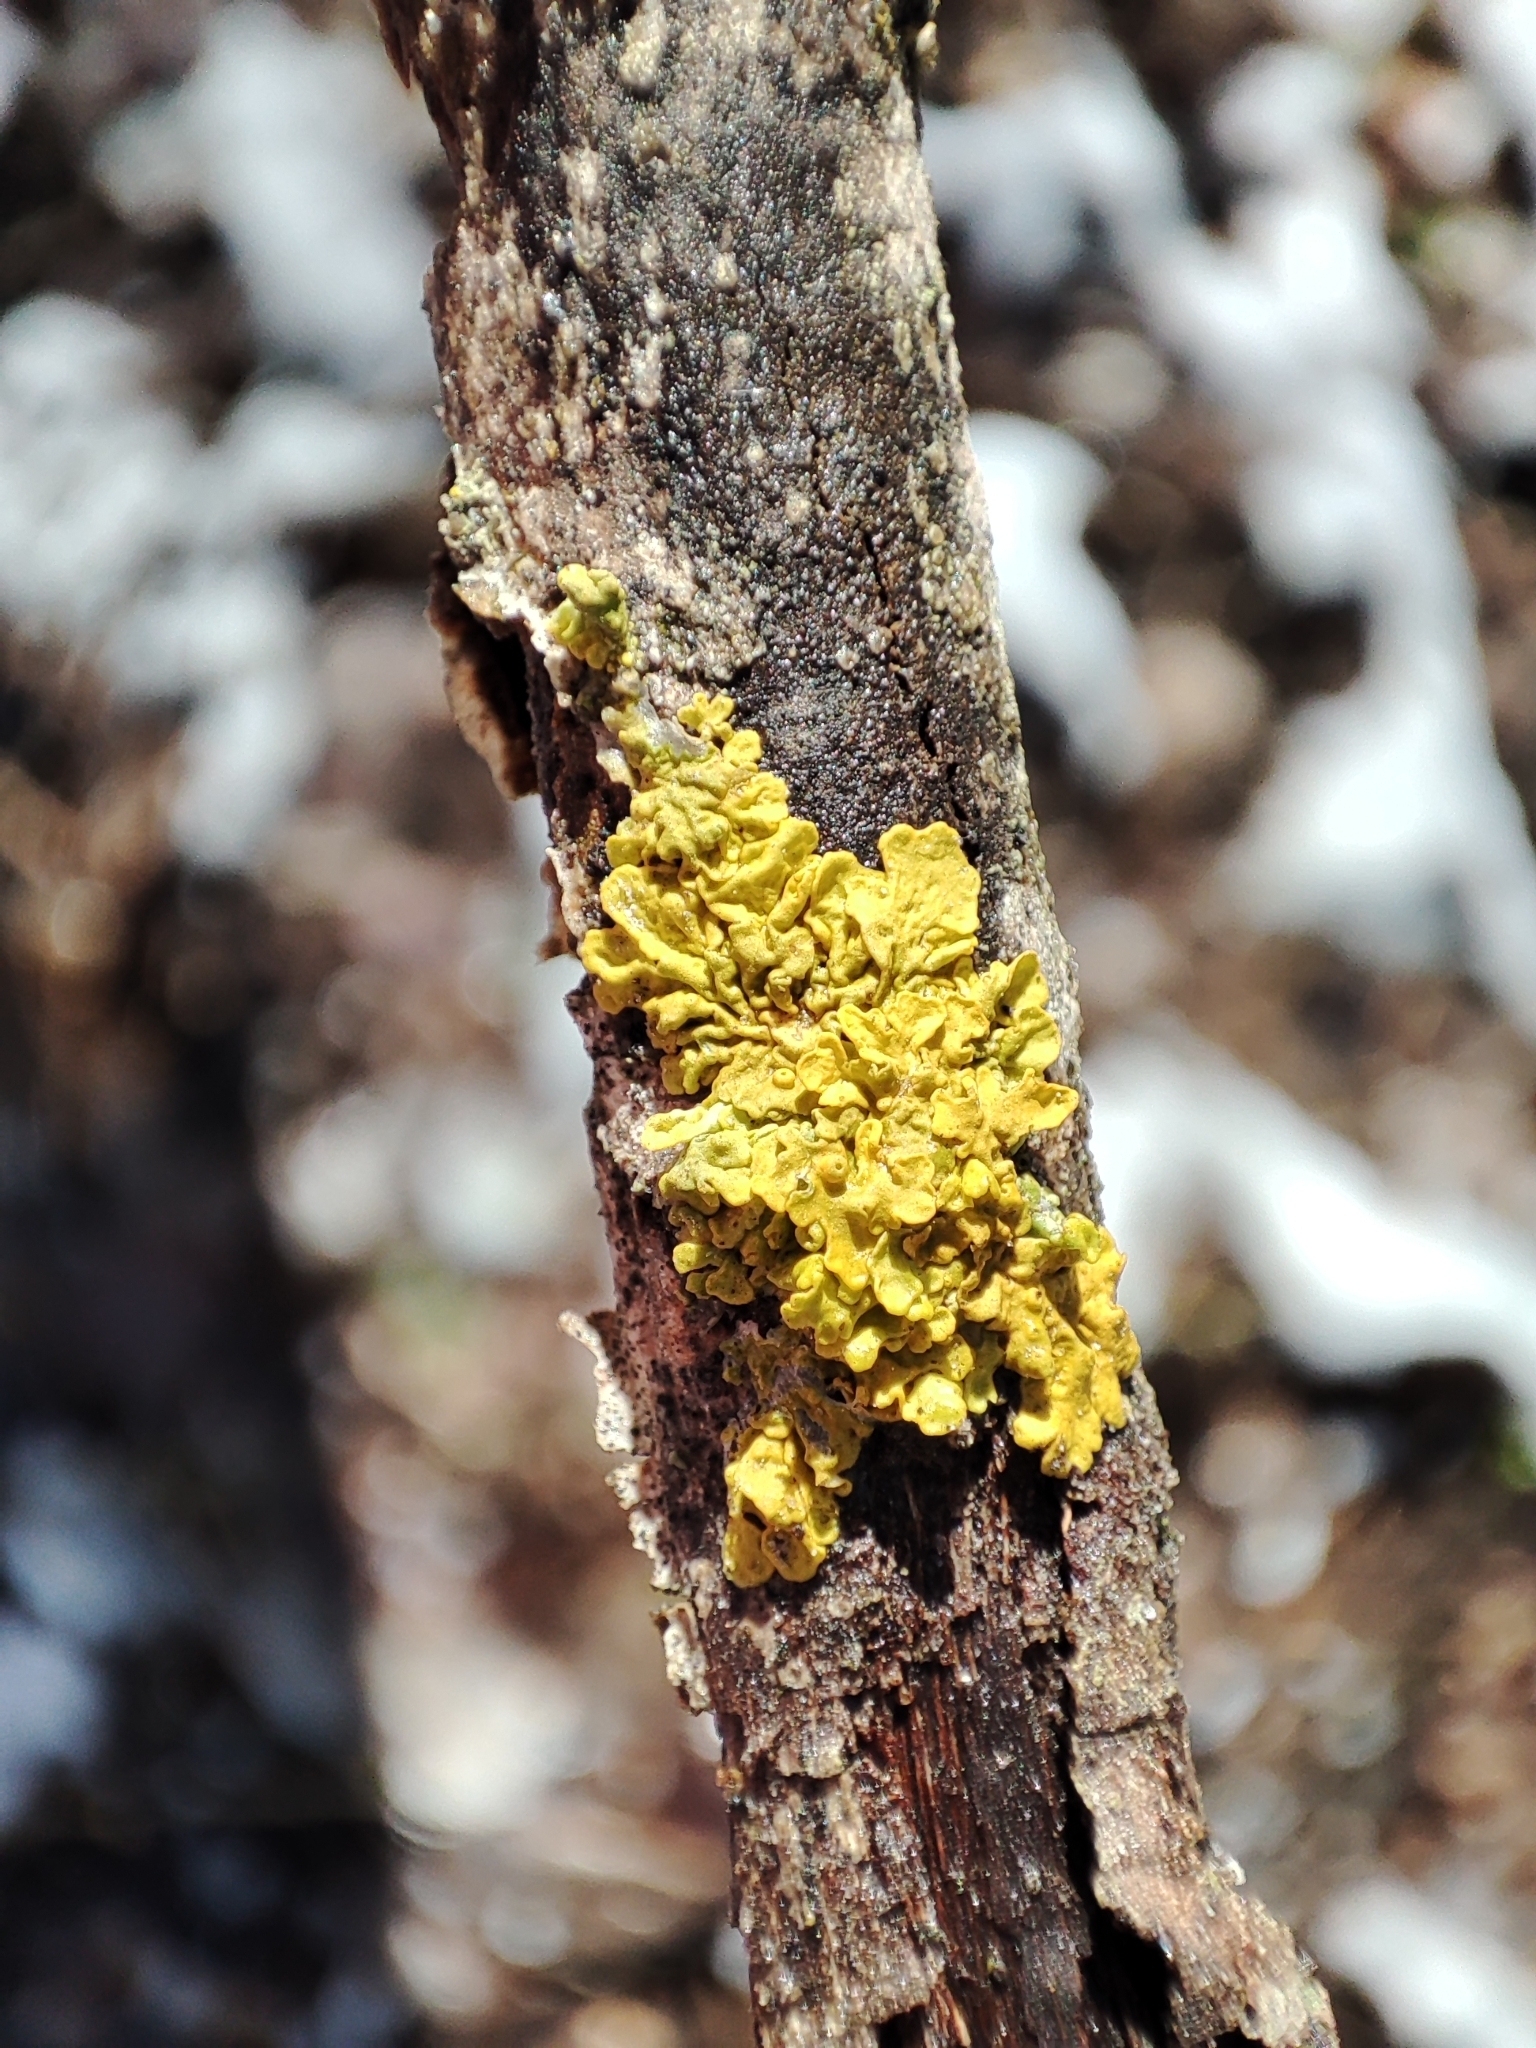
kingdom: Fungi
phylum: Ascomycota
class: Lecanoromycetes
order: Teloschistales
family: Teloschistaceae
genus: Xanthoria
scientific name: Xanthoria parietina
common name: Common orange lichen
